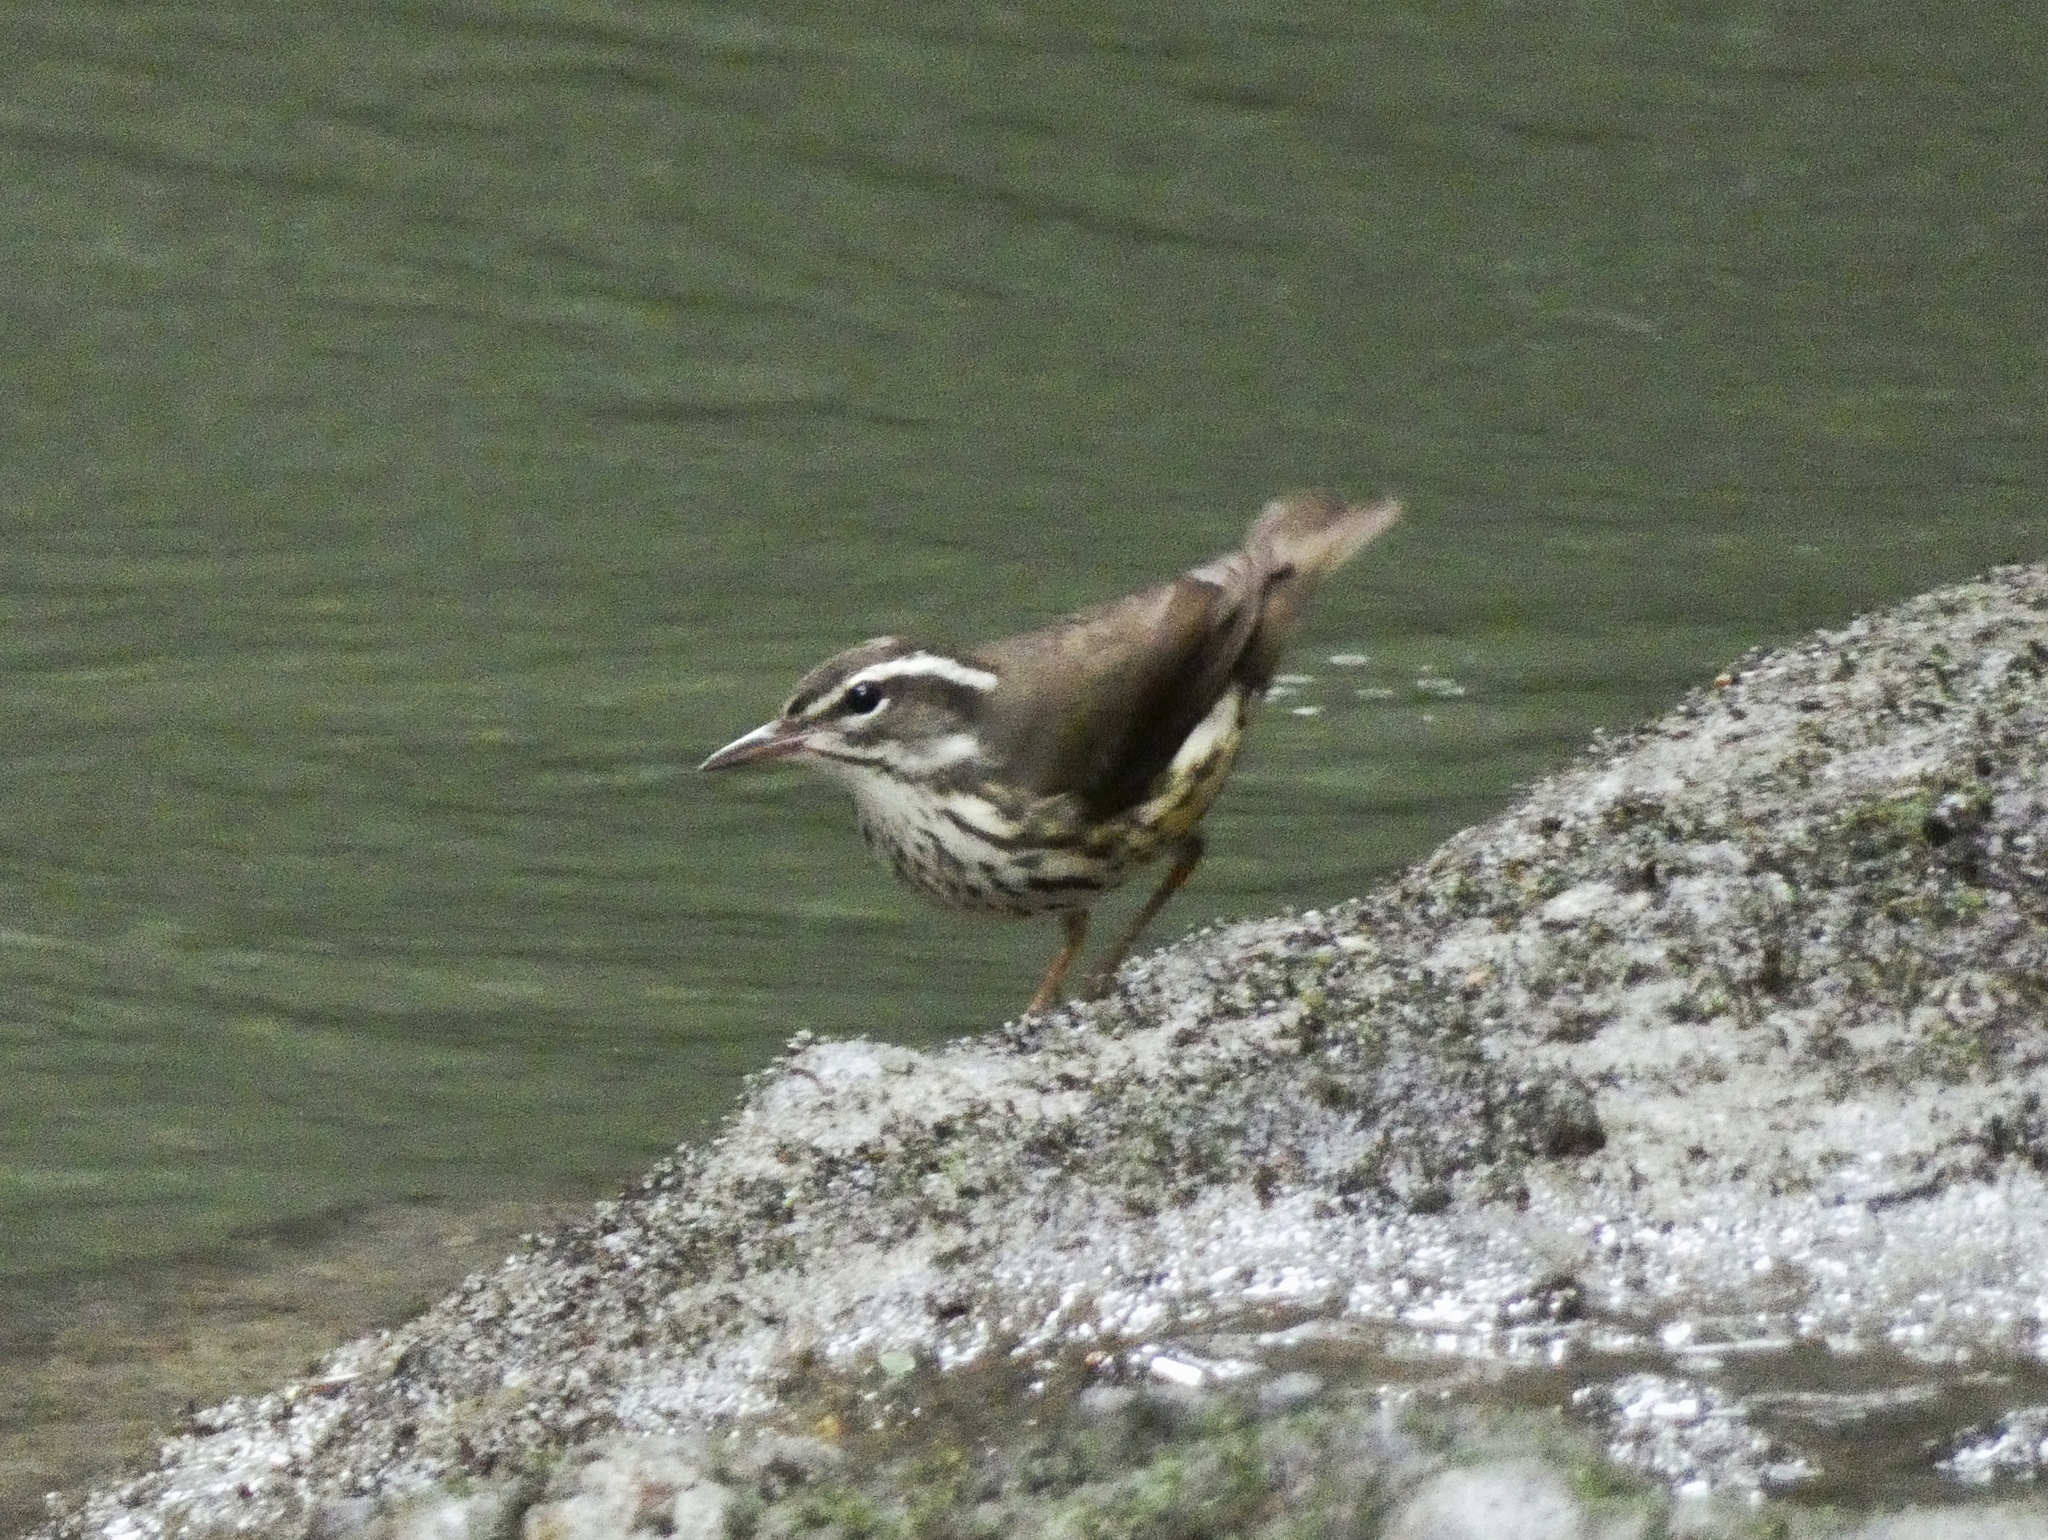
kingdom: Animalia
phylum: Chordata
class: Aves
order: Passeriformes
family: Parulidae
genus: Parkesia
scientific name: Parkesia motacilla
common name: Louisiana waterthrush
